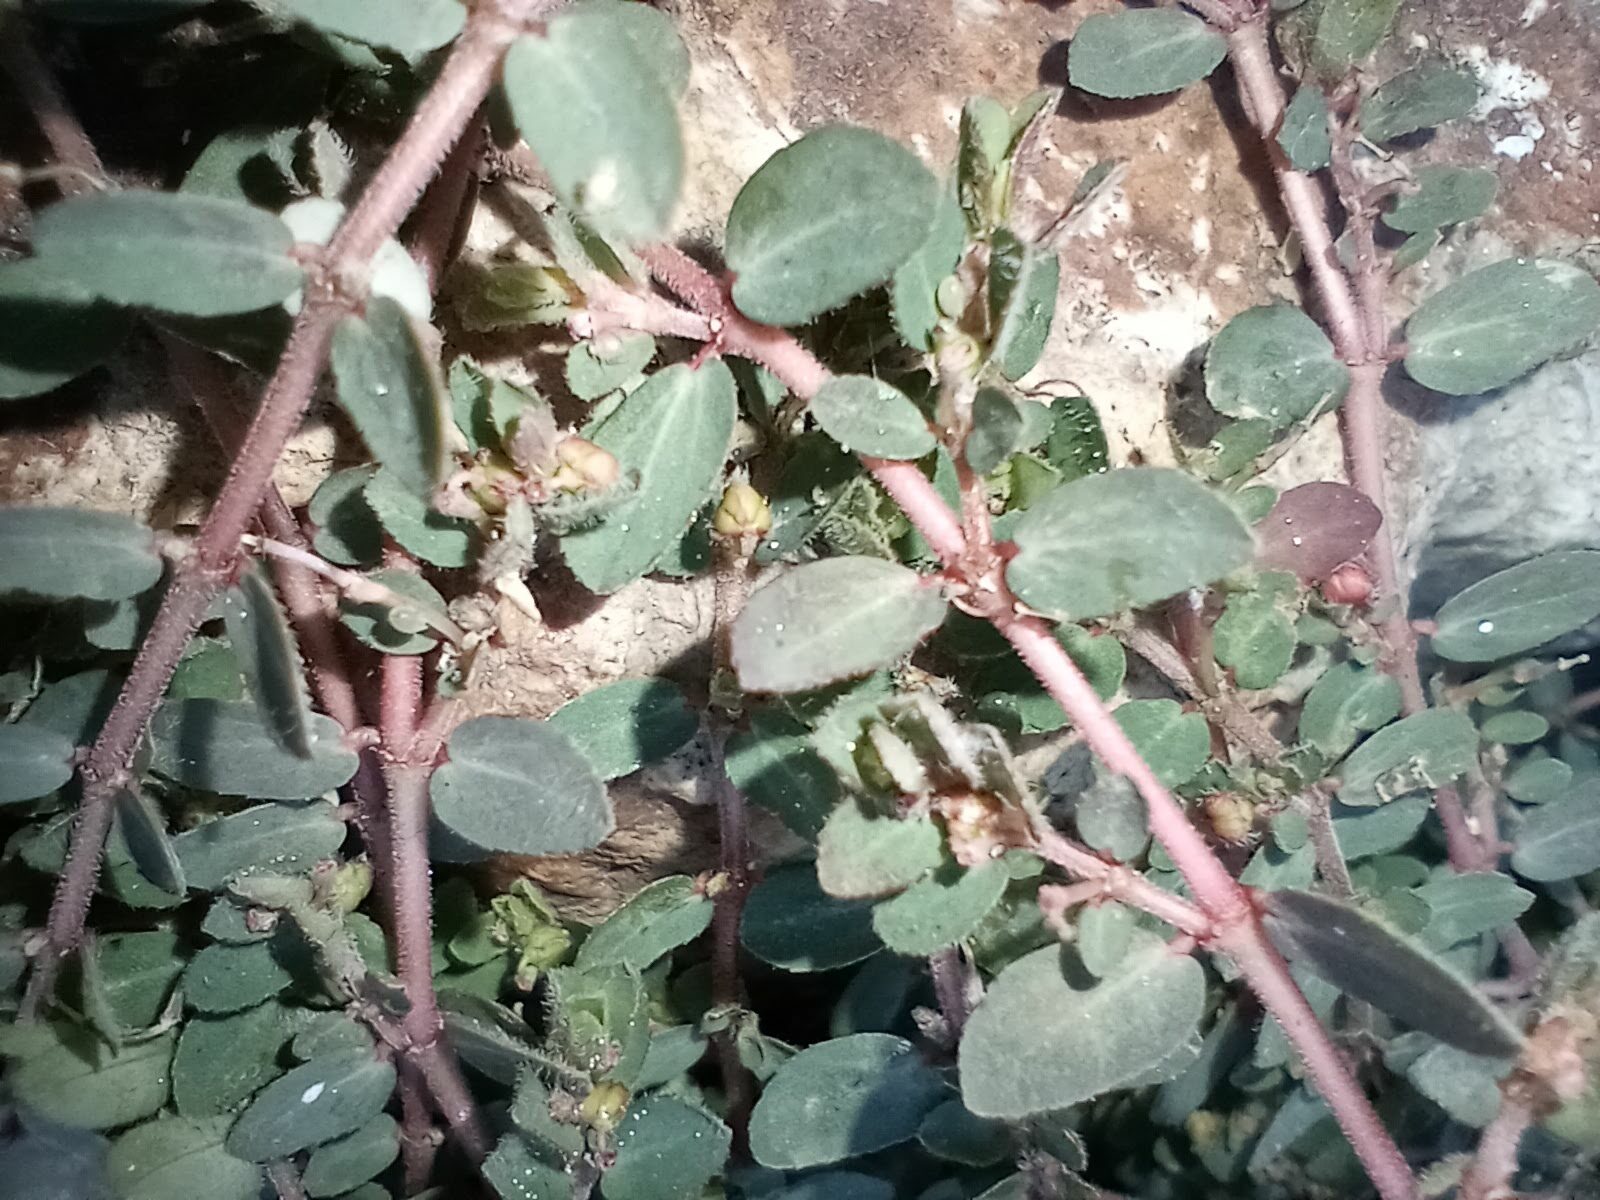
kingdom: Plantae
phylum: Tracheophyta
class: Magnoliopsida
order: Malpighiales
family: Euphorbiaceae
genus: Euphorbia
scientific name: Euphorbia prostrata
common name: Prostrate sandmat
